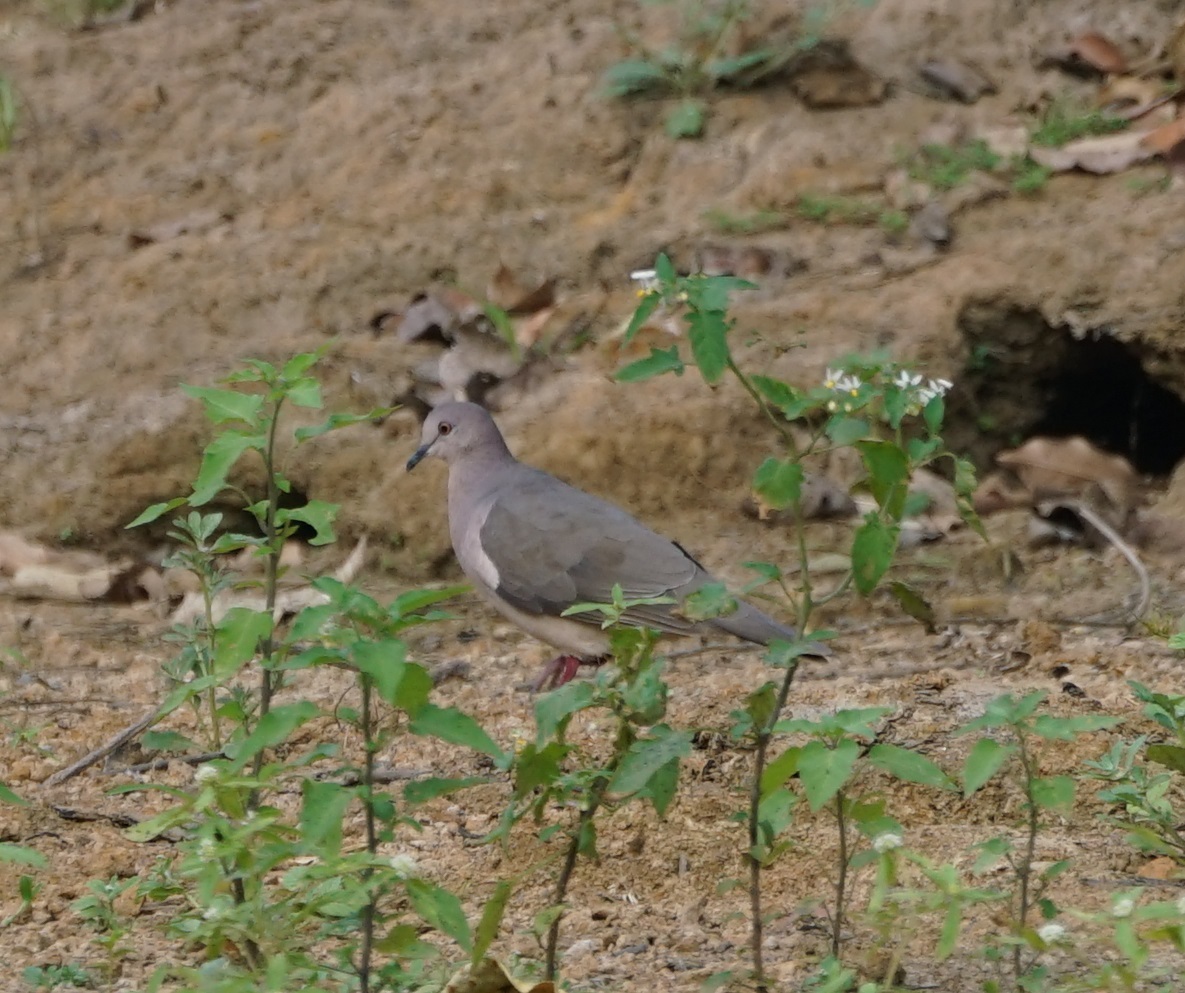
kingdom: Animalia
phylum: Chordata
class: Aves
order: Columbiformes
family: Columbidae
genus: Leptotila
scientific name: Leptotila verreauxi
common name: White-tipped dove
